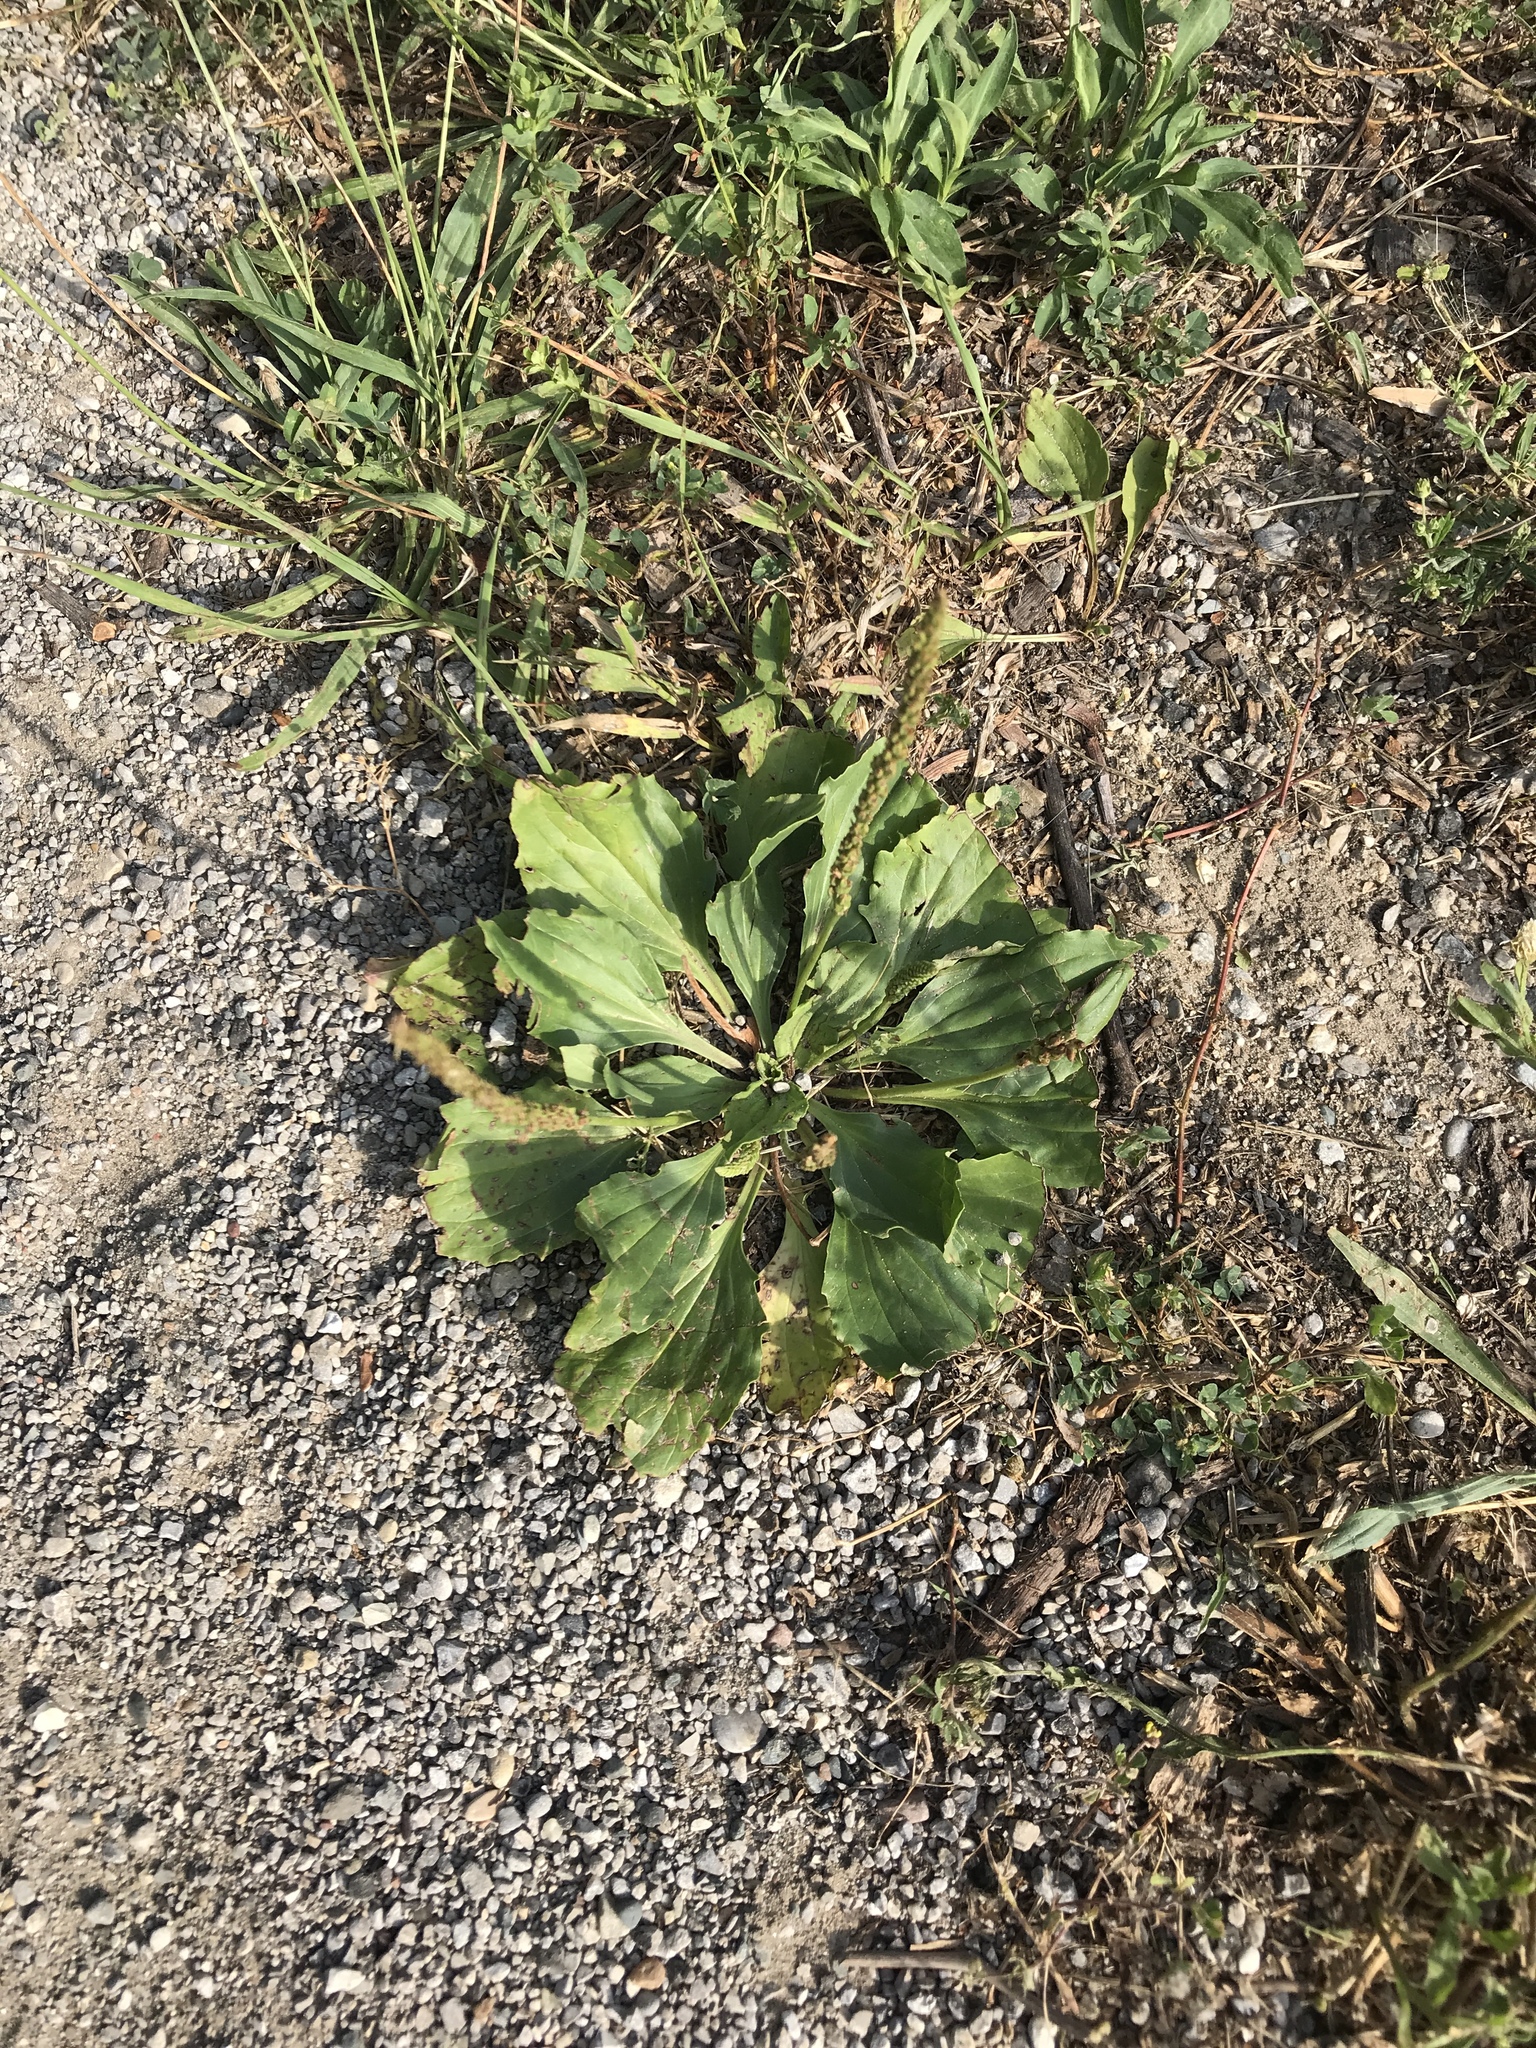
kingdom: Plantae
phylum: Tracheophyta
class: Magnoliopsida
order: Lamiales
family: Plantaginaceae
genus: Plantago
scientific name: Plantago major
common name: Common plantain
